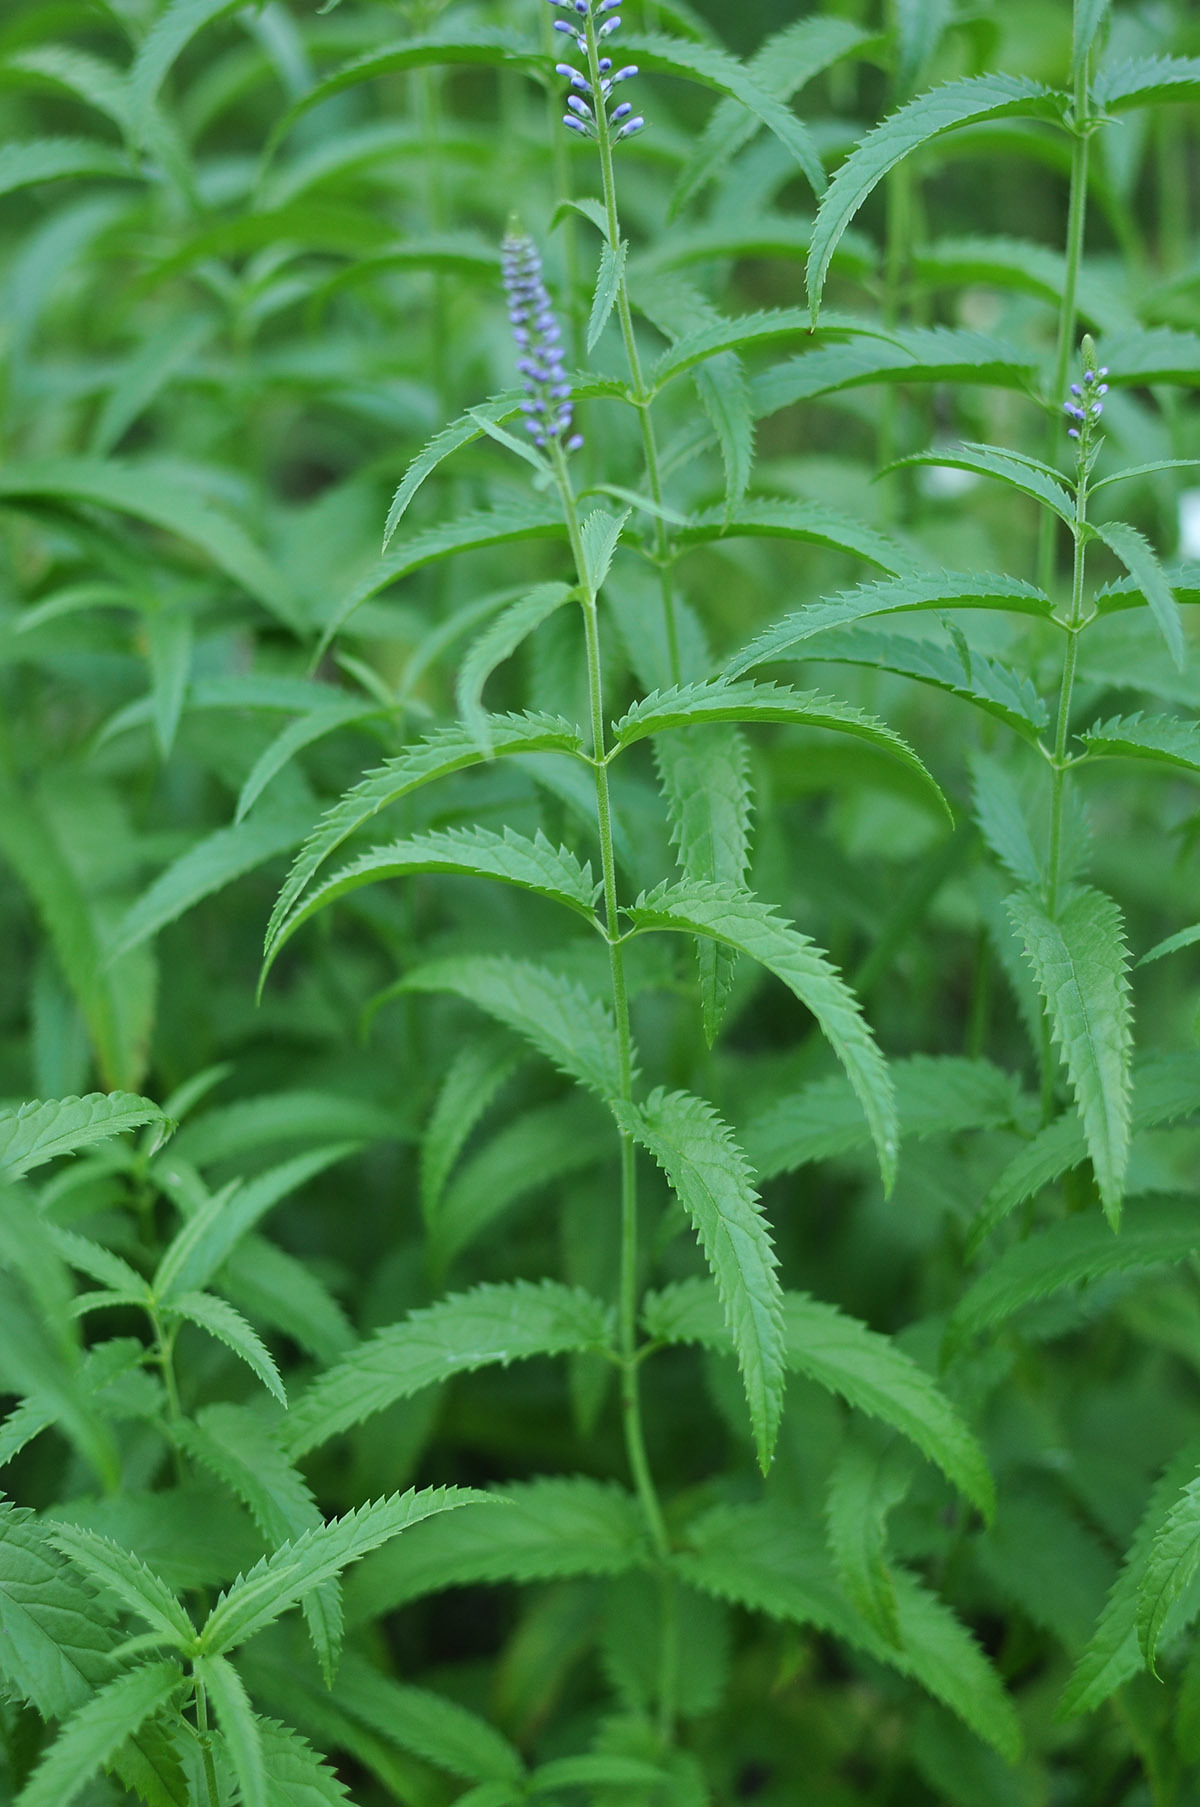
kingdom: Plantae
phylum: Tracheophyta
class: Magnoliopsida
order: Lamiales
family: Plantaginaceae
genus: Veronica
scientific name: Veronica longifolia
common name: Garden speedwell
